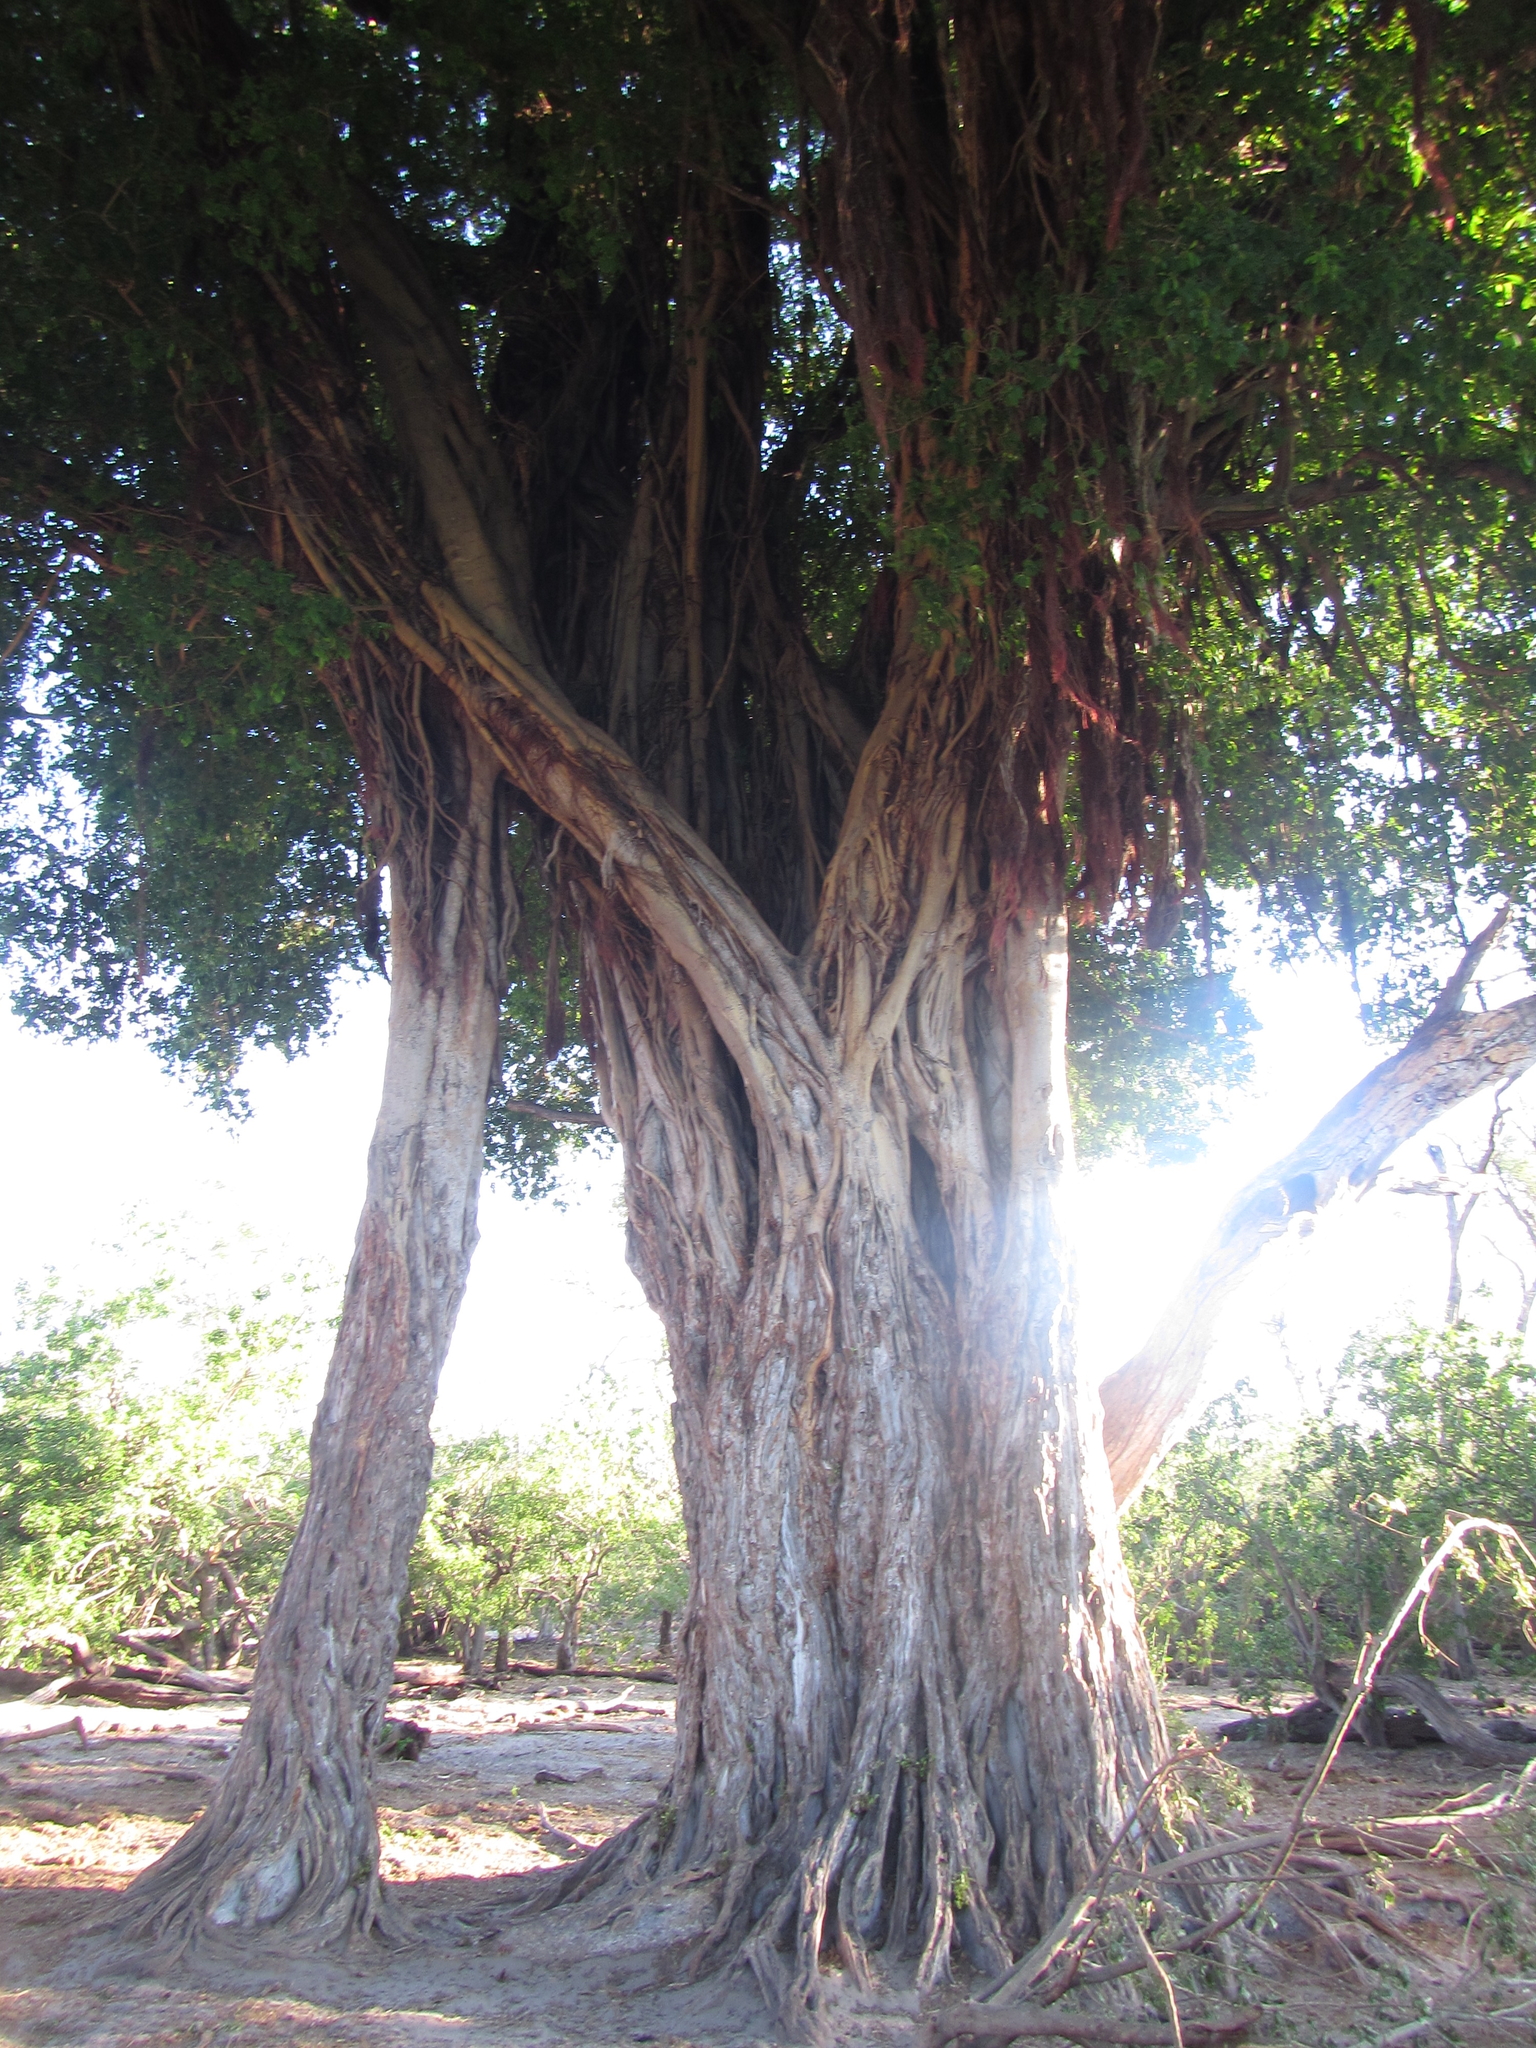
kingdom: Plantae
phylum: Tracheophyta
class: Magnoliopsida
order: Rosales
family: Moraceae
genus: Ficus
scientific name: Ficus thonningii
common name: Fig
